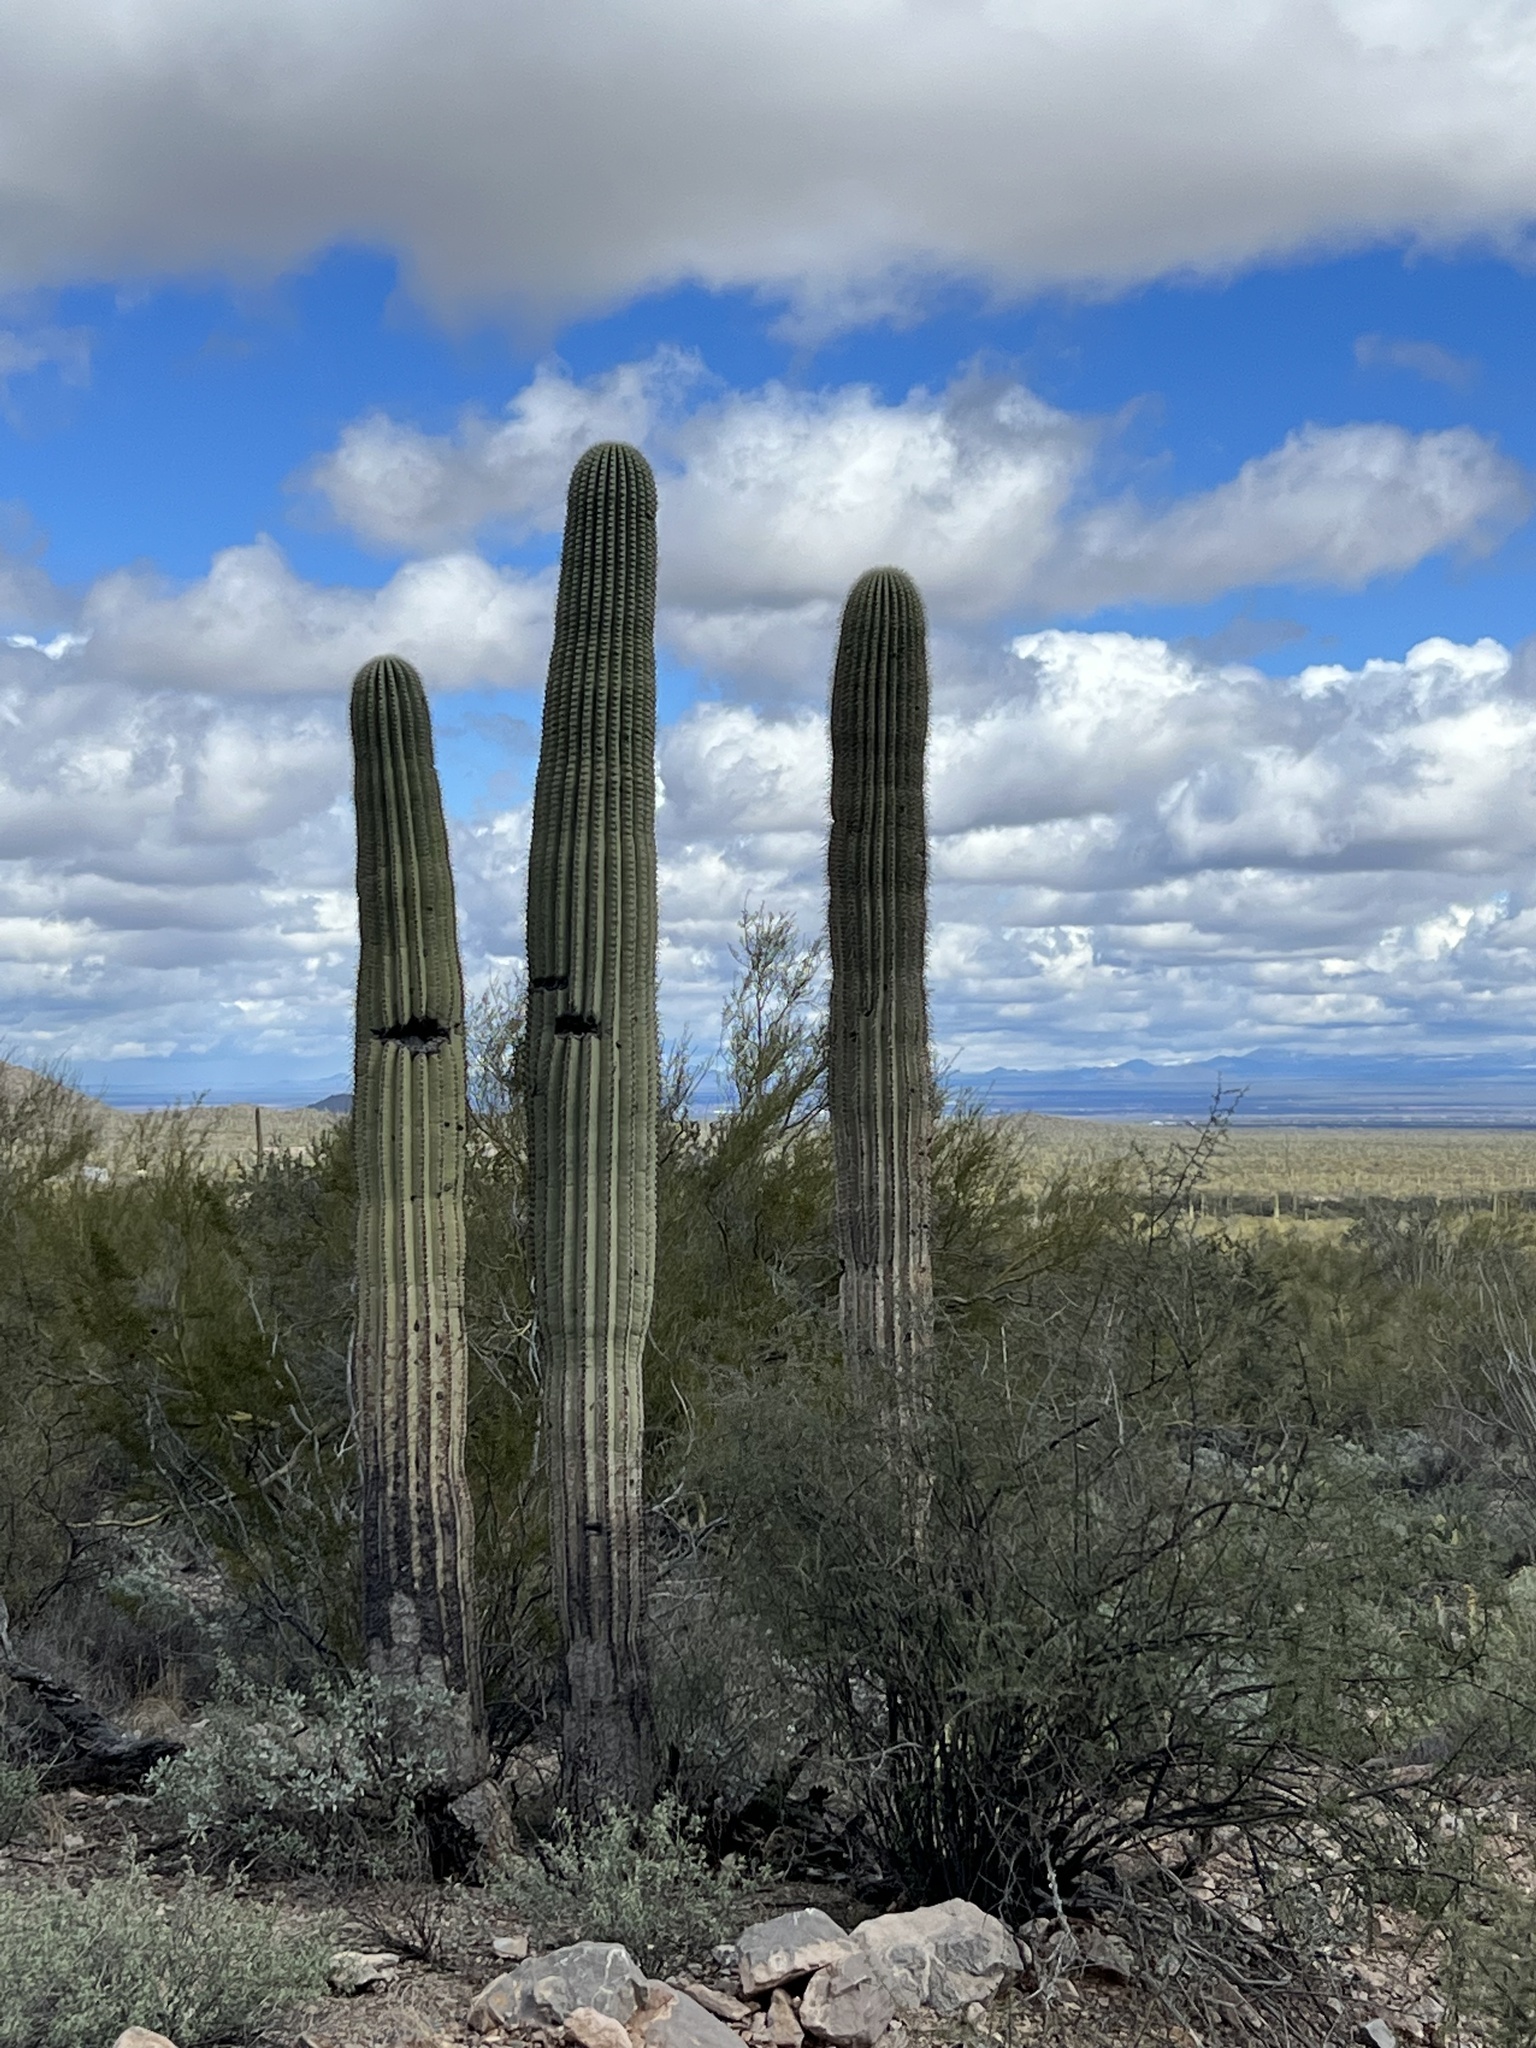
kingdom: Plantae
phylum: Tracheophyta
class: Magnoliopsida
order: Caryophyllales
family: Cactaceae
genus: Carnegiea
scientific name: Carnegiea gigantea
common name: Saguaro
